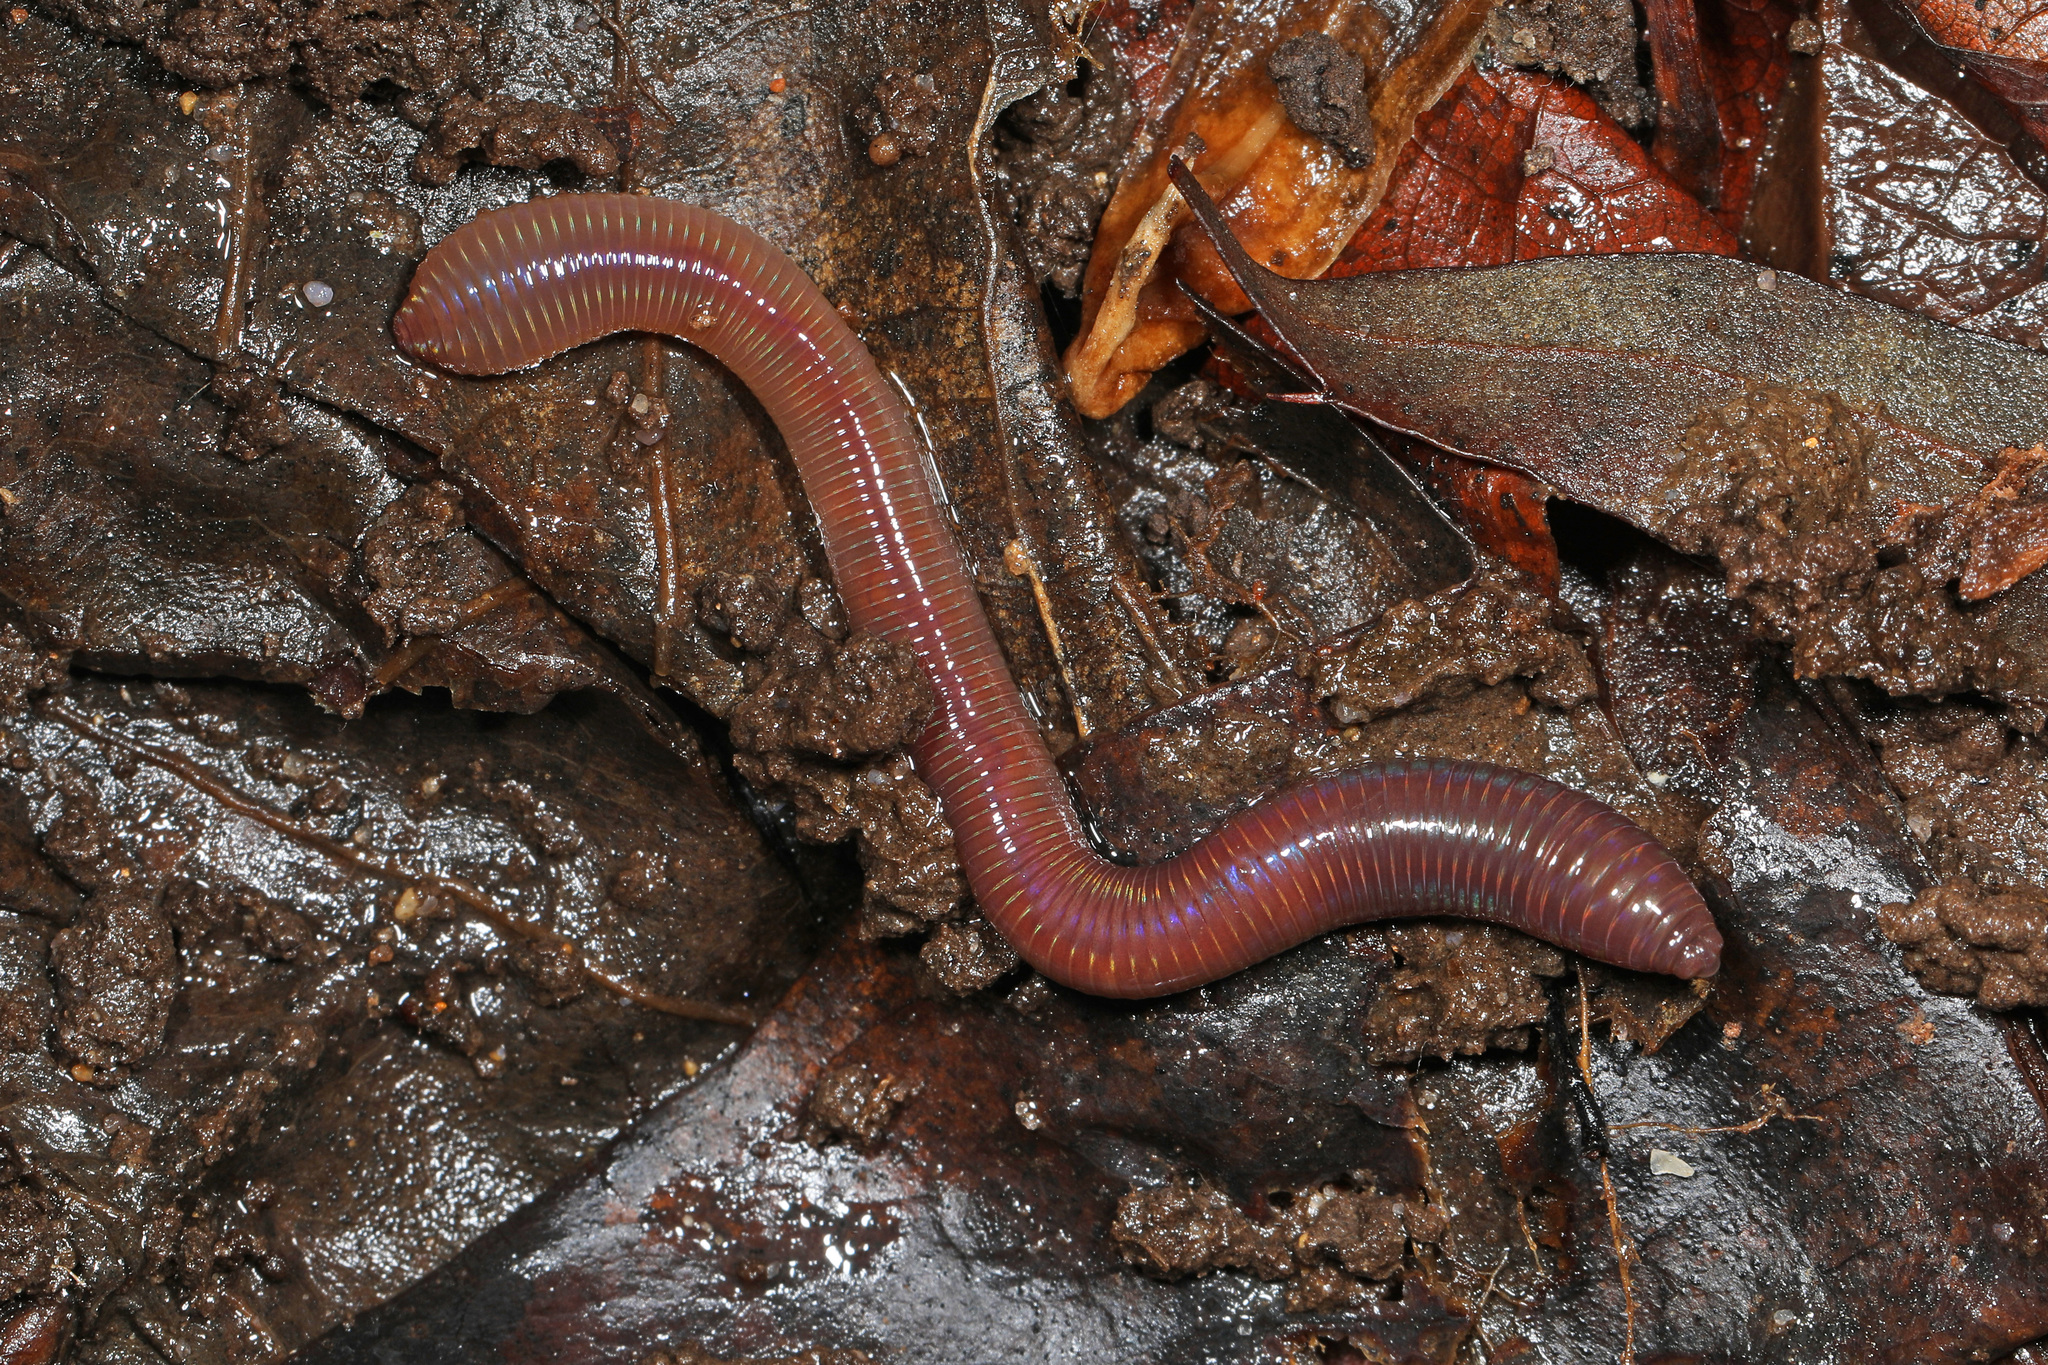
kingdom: Animalia
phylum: Annelida
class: Clitellata
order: Crassiclitellata
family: Lumbricidae
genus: Lumbricus
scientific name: Lumbricus terrestris
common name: Common earthworm
